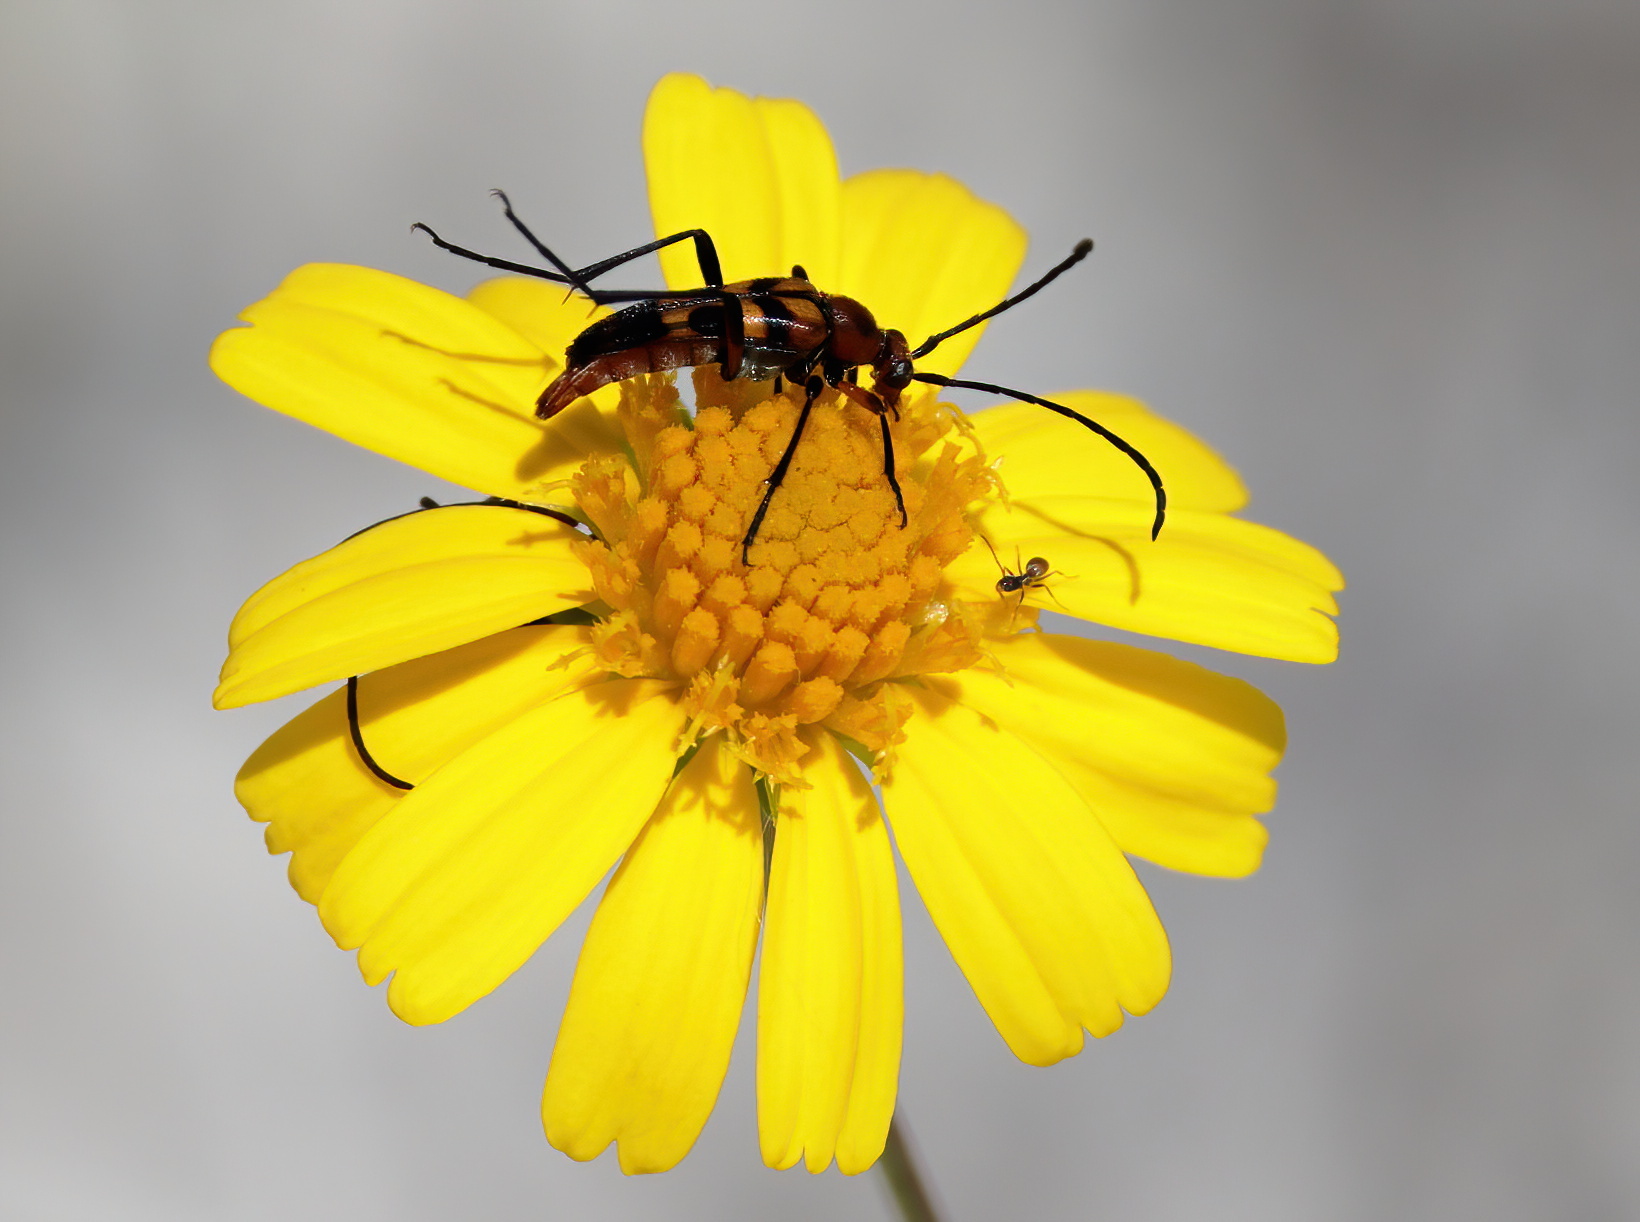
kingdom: Animalia
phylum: Arthropoda
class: Insecta
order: Coleoptera
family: Cerambycidae
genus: Strangalia
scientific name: Strangalia sexnotata
